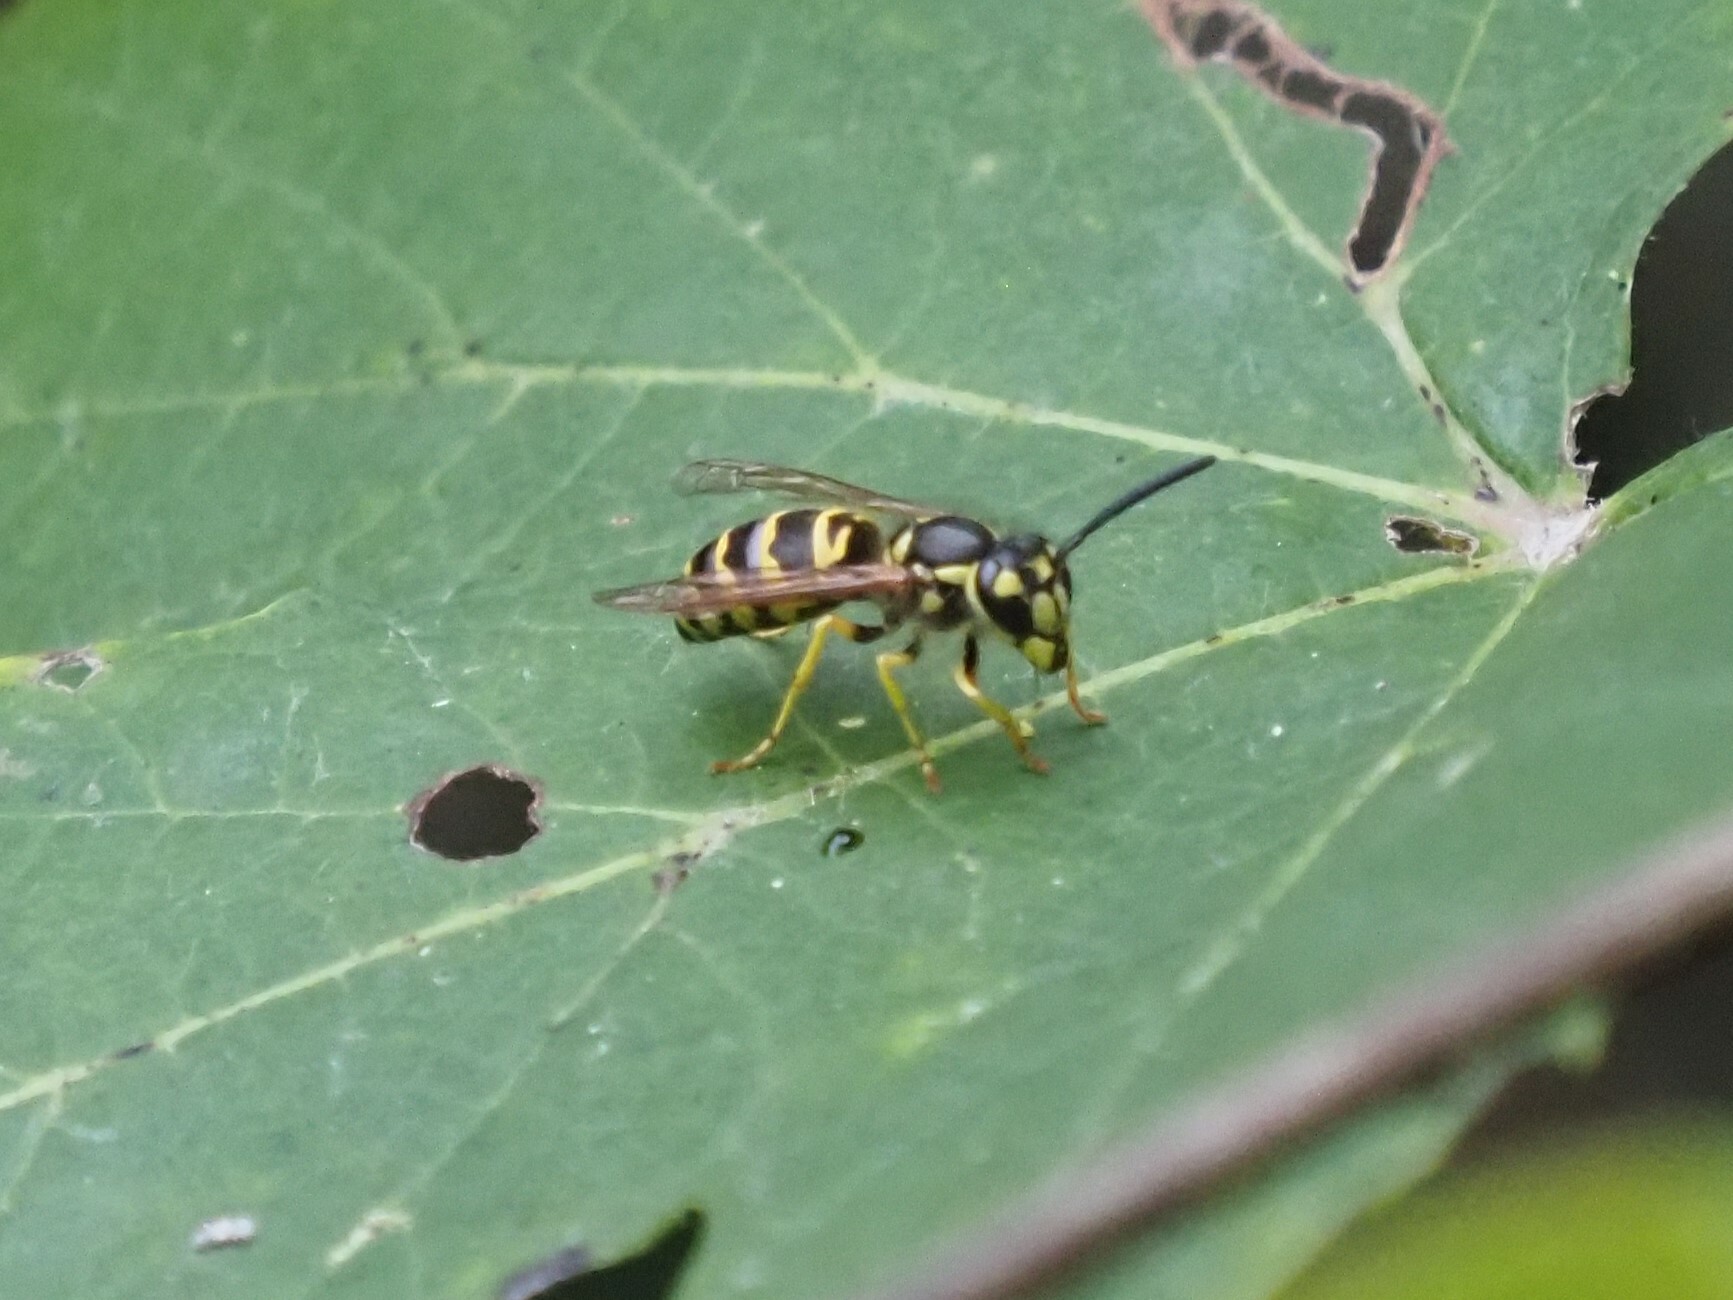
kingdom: Animalia
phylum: Arthropoda
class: Insecta
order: Hymenoptera
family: Vespidae
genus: Vespula
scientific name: Vespula maculifrons
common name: Eastern yellowjacket
